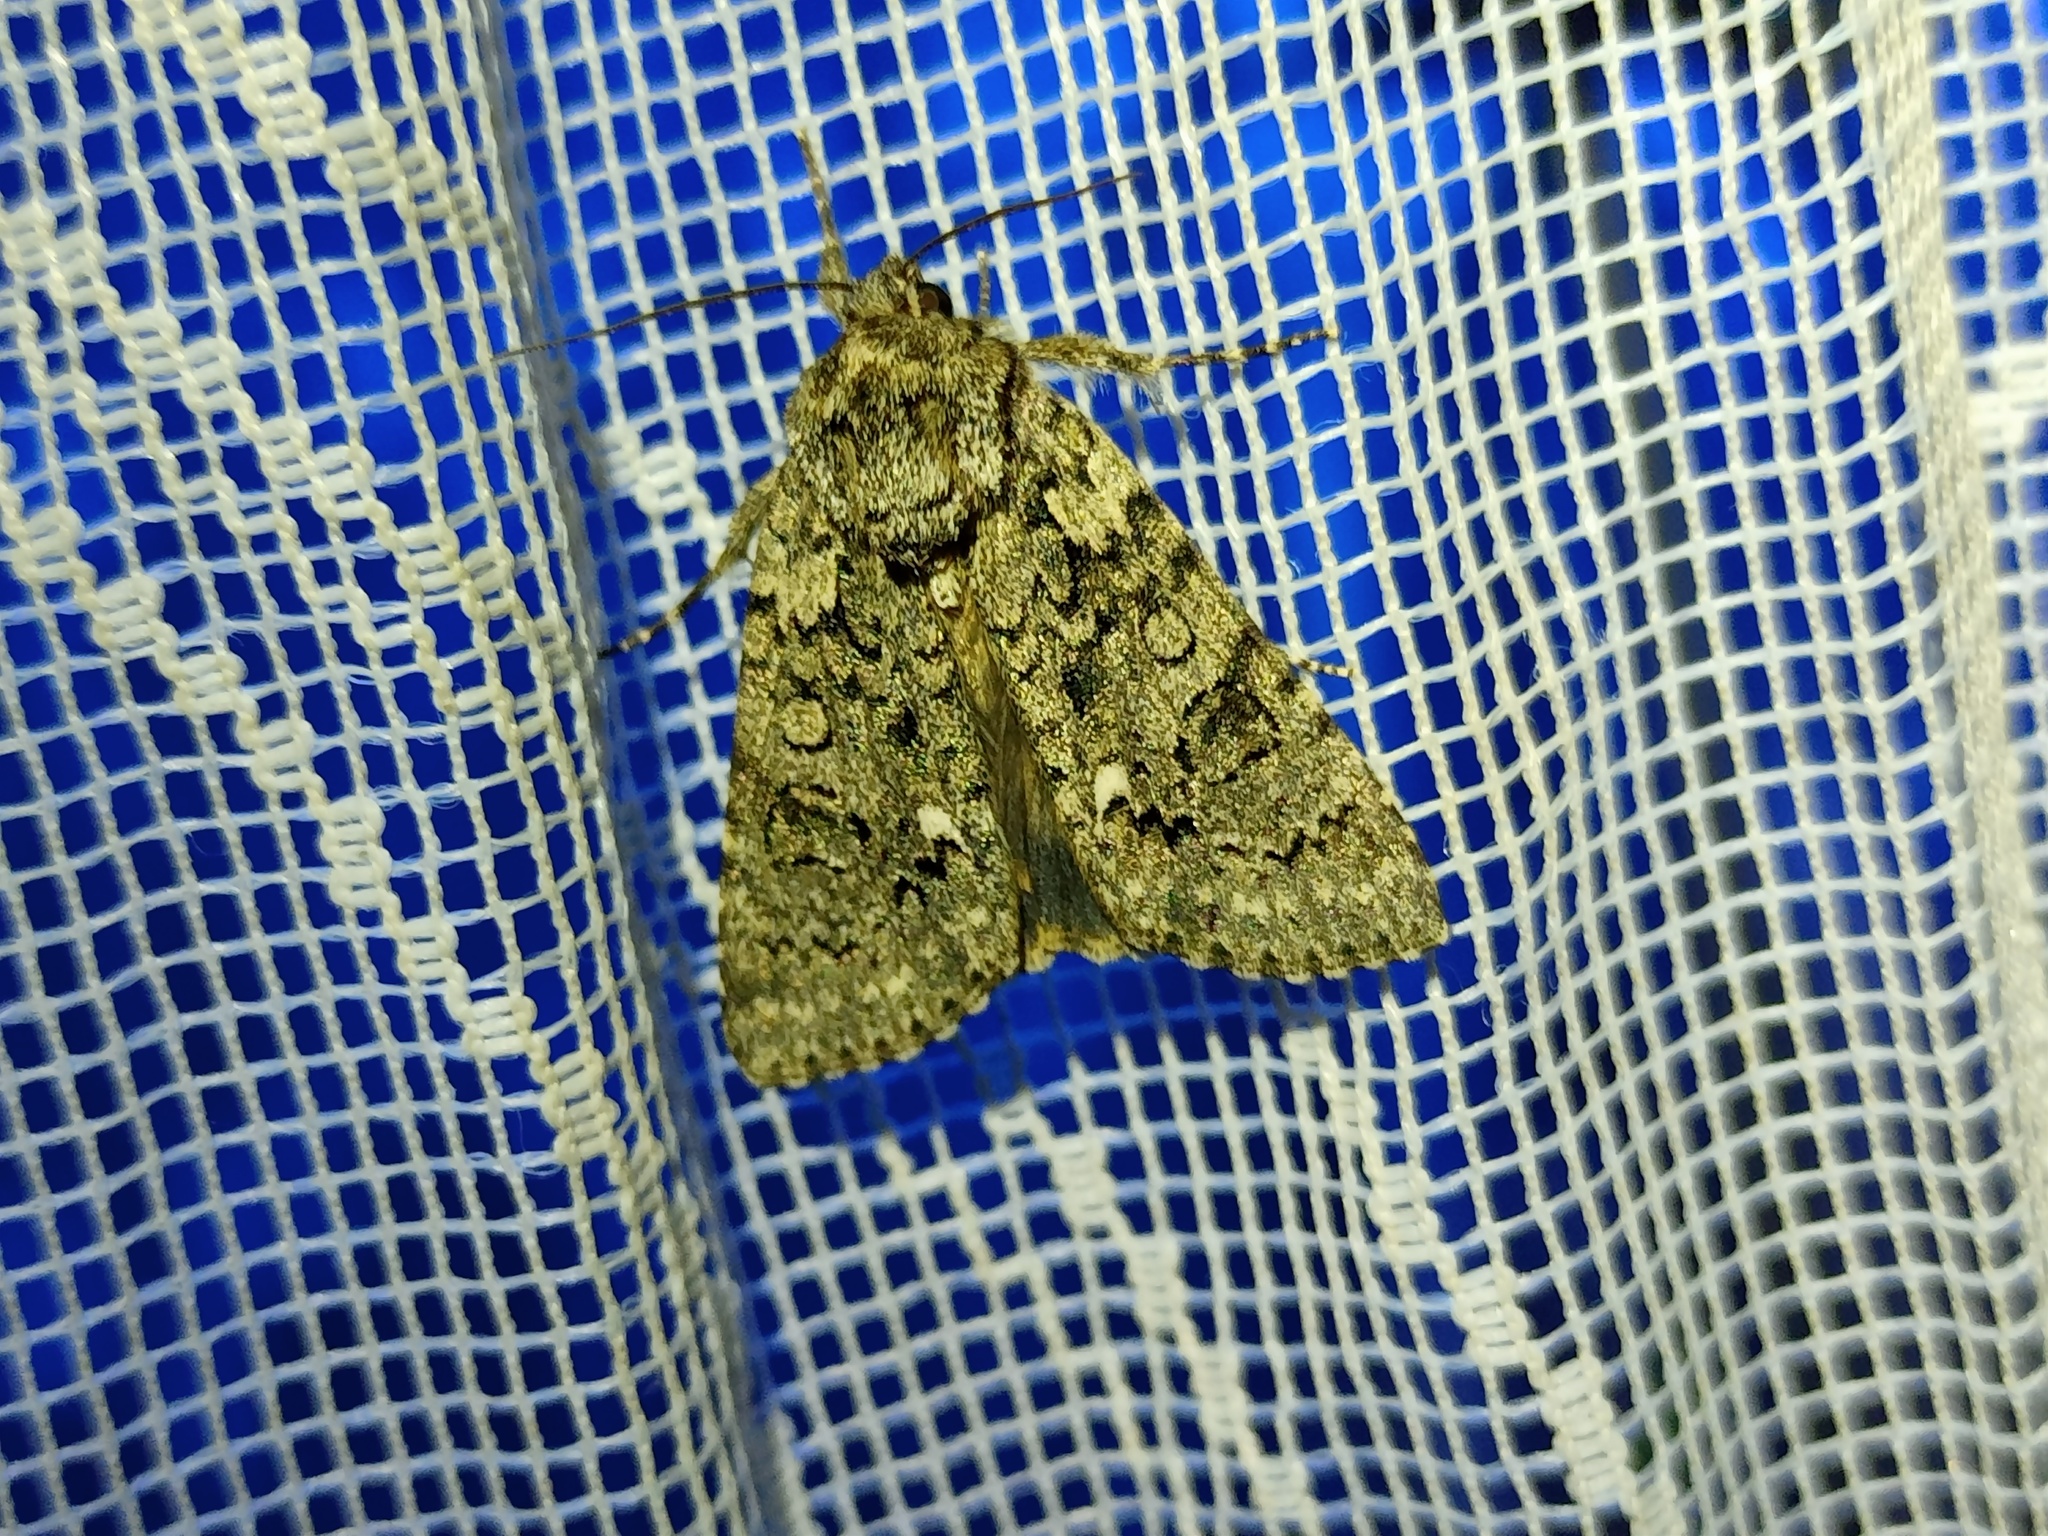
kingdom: Animalia
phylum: Arthropoda
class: Insecta
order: Lepidoptera
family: Noctuidae
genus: Acronicta
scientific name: Acronicta rumicis
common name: Knot grass
